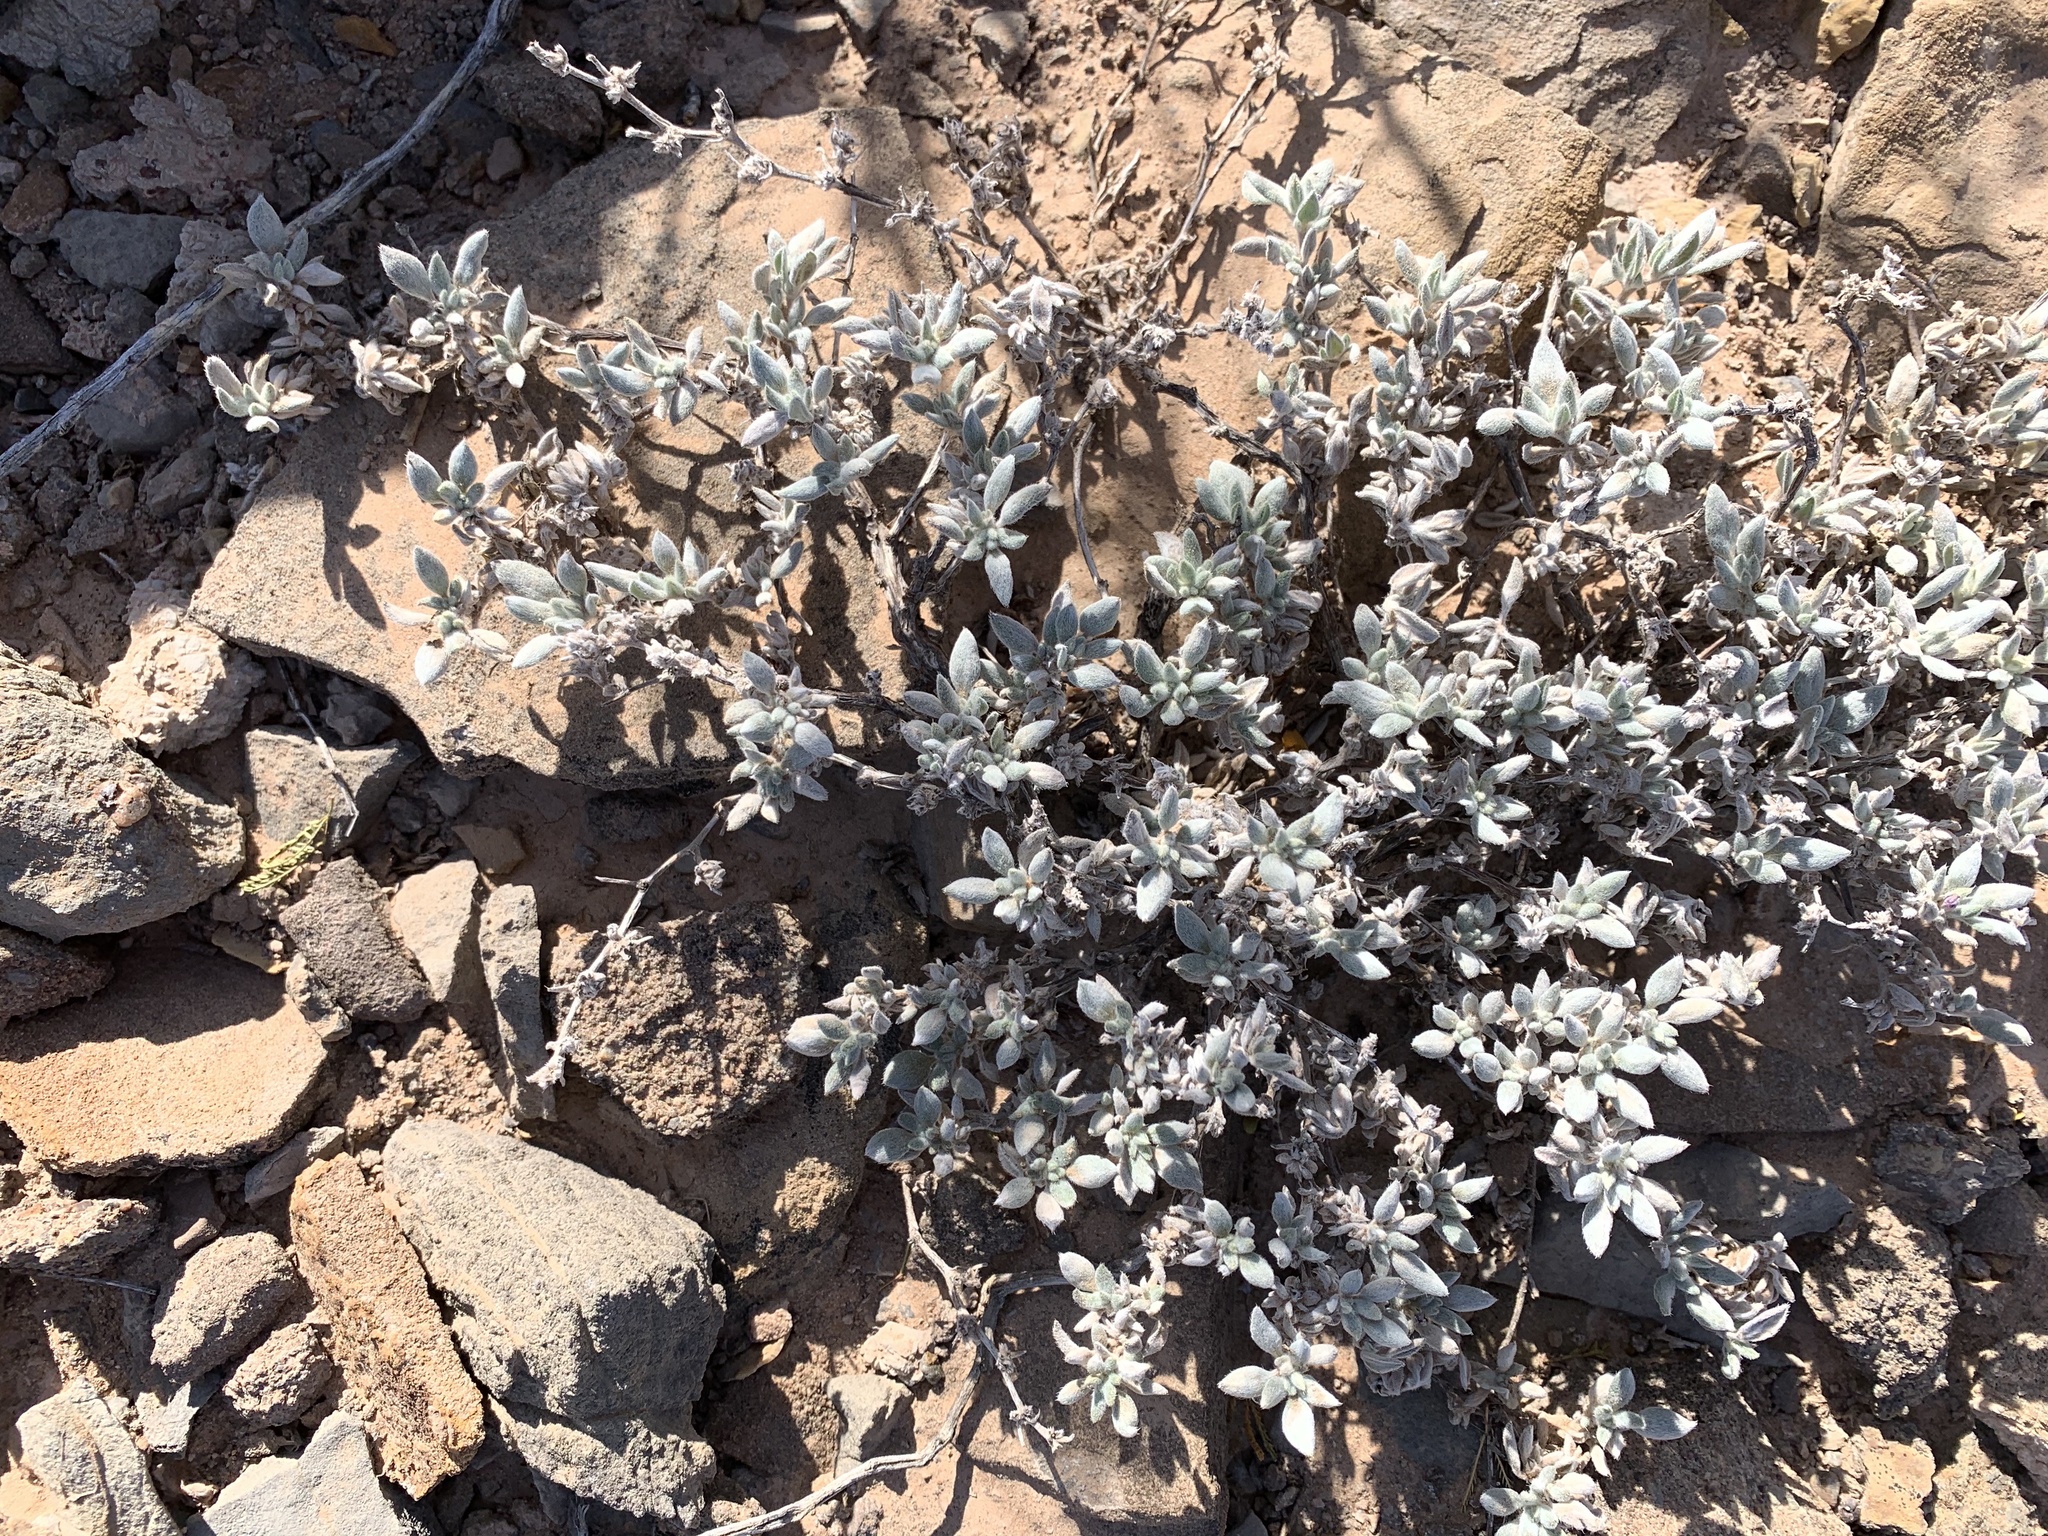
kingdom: Plantae
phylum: Tracheophyta
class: Magnoliopsida
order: Boraginales
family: Ehretiaceae
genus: Tiquilia
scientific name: Tiquilia canescens
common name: Hairy tiquilia
